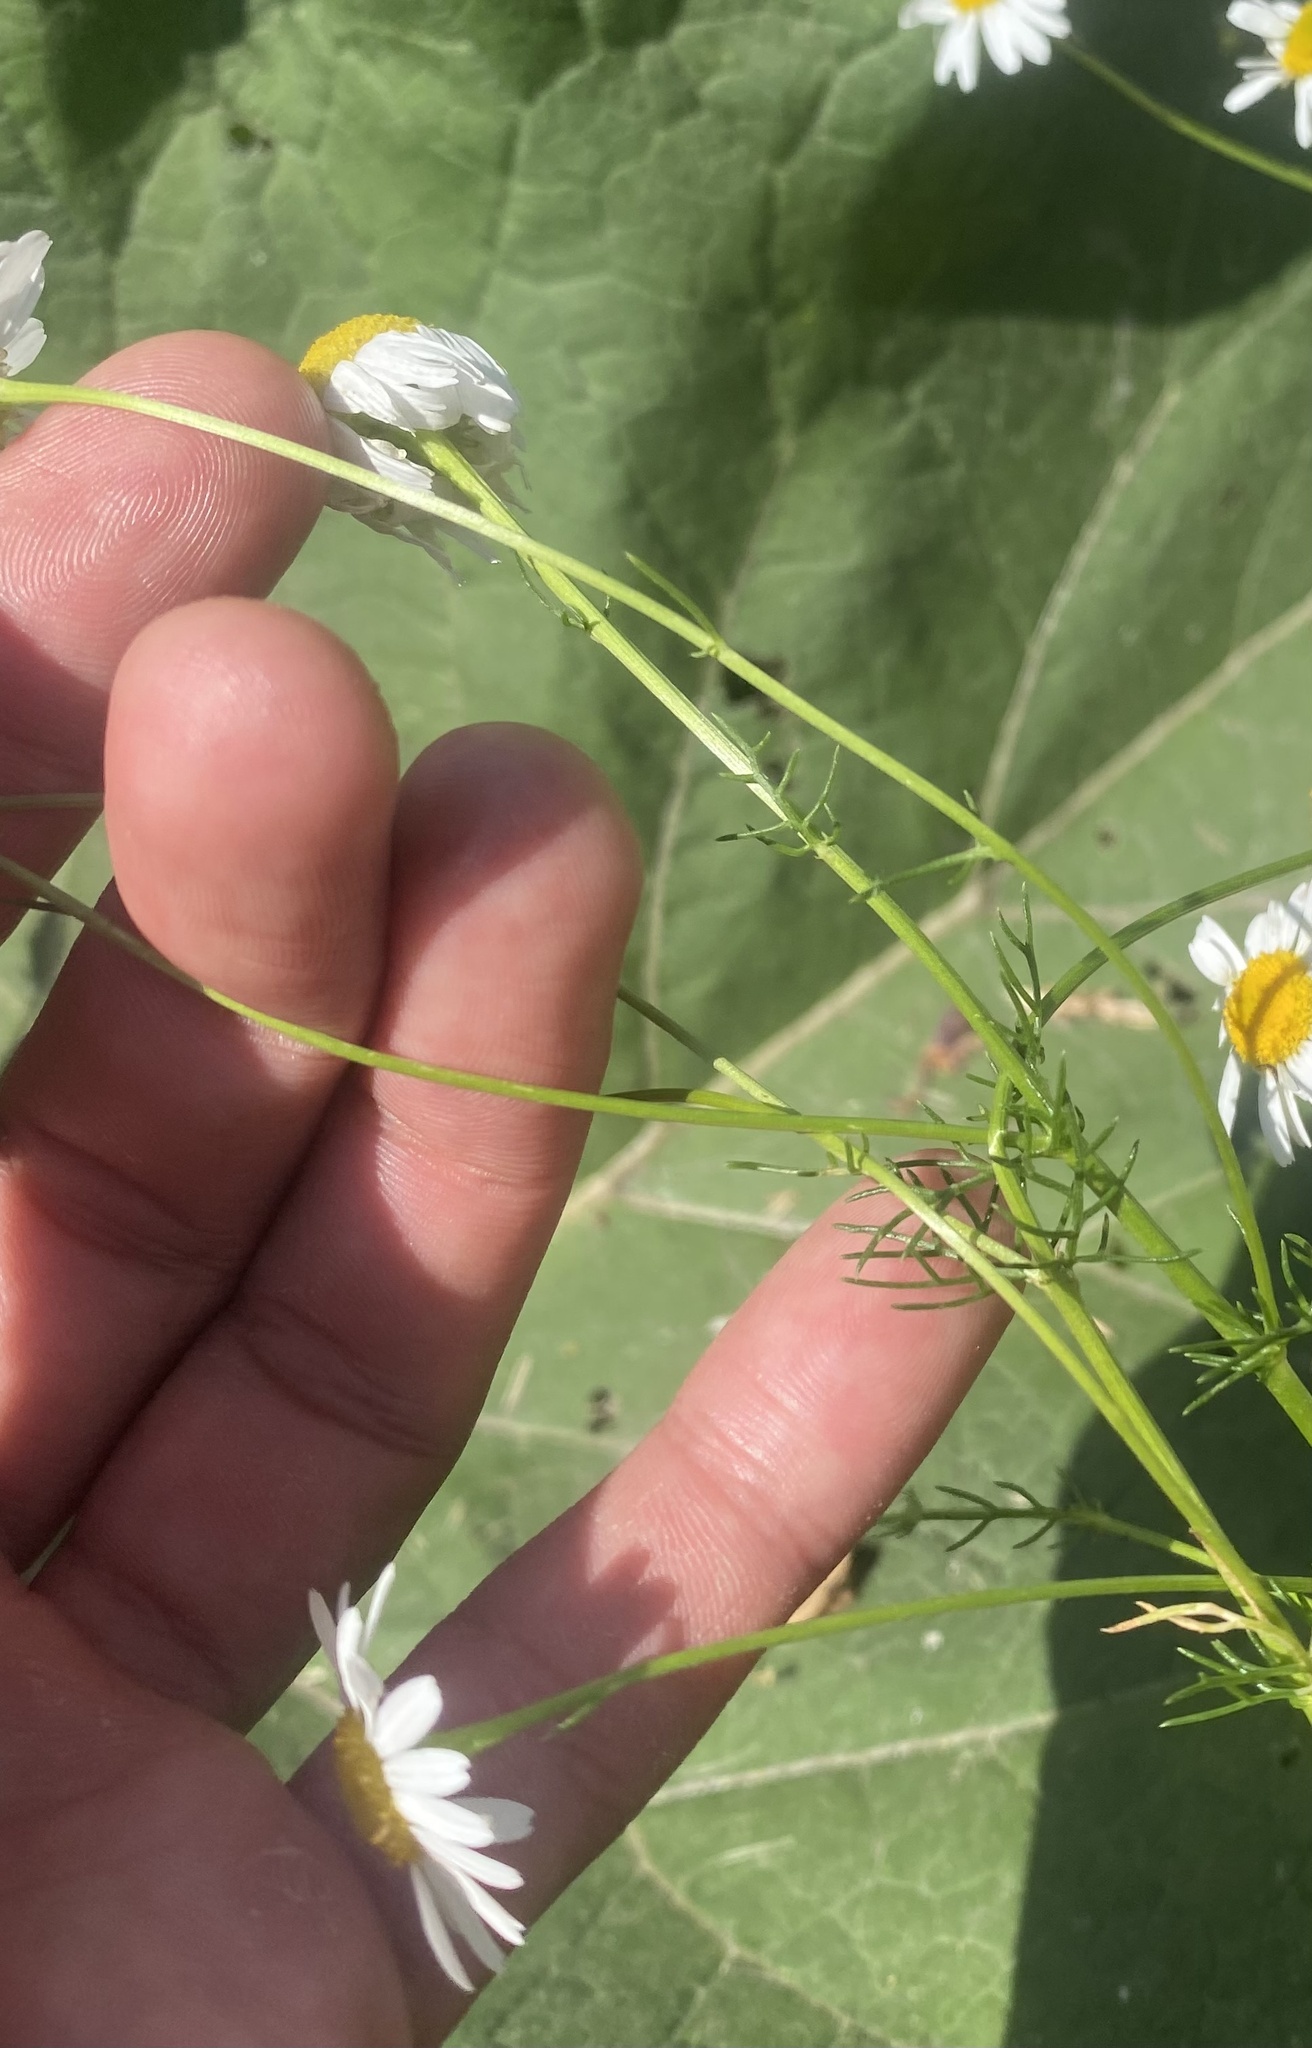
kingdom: Plantae
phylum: Tracheophyta
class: Magnoliopsida
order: Asterales
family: Asteraceae
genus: Tripleurospermum
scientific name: Tripleurospermum inodorum
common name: Scentless mayweed
